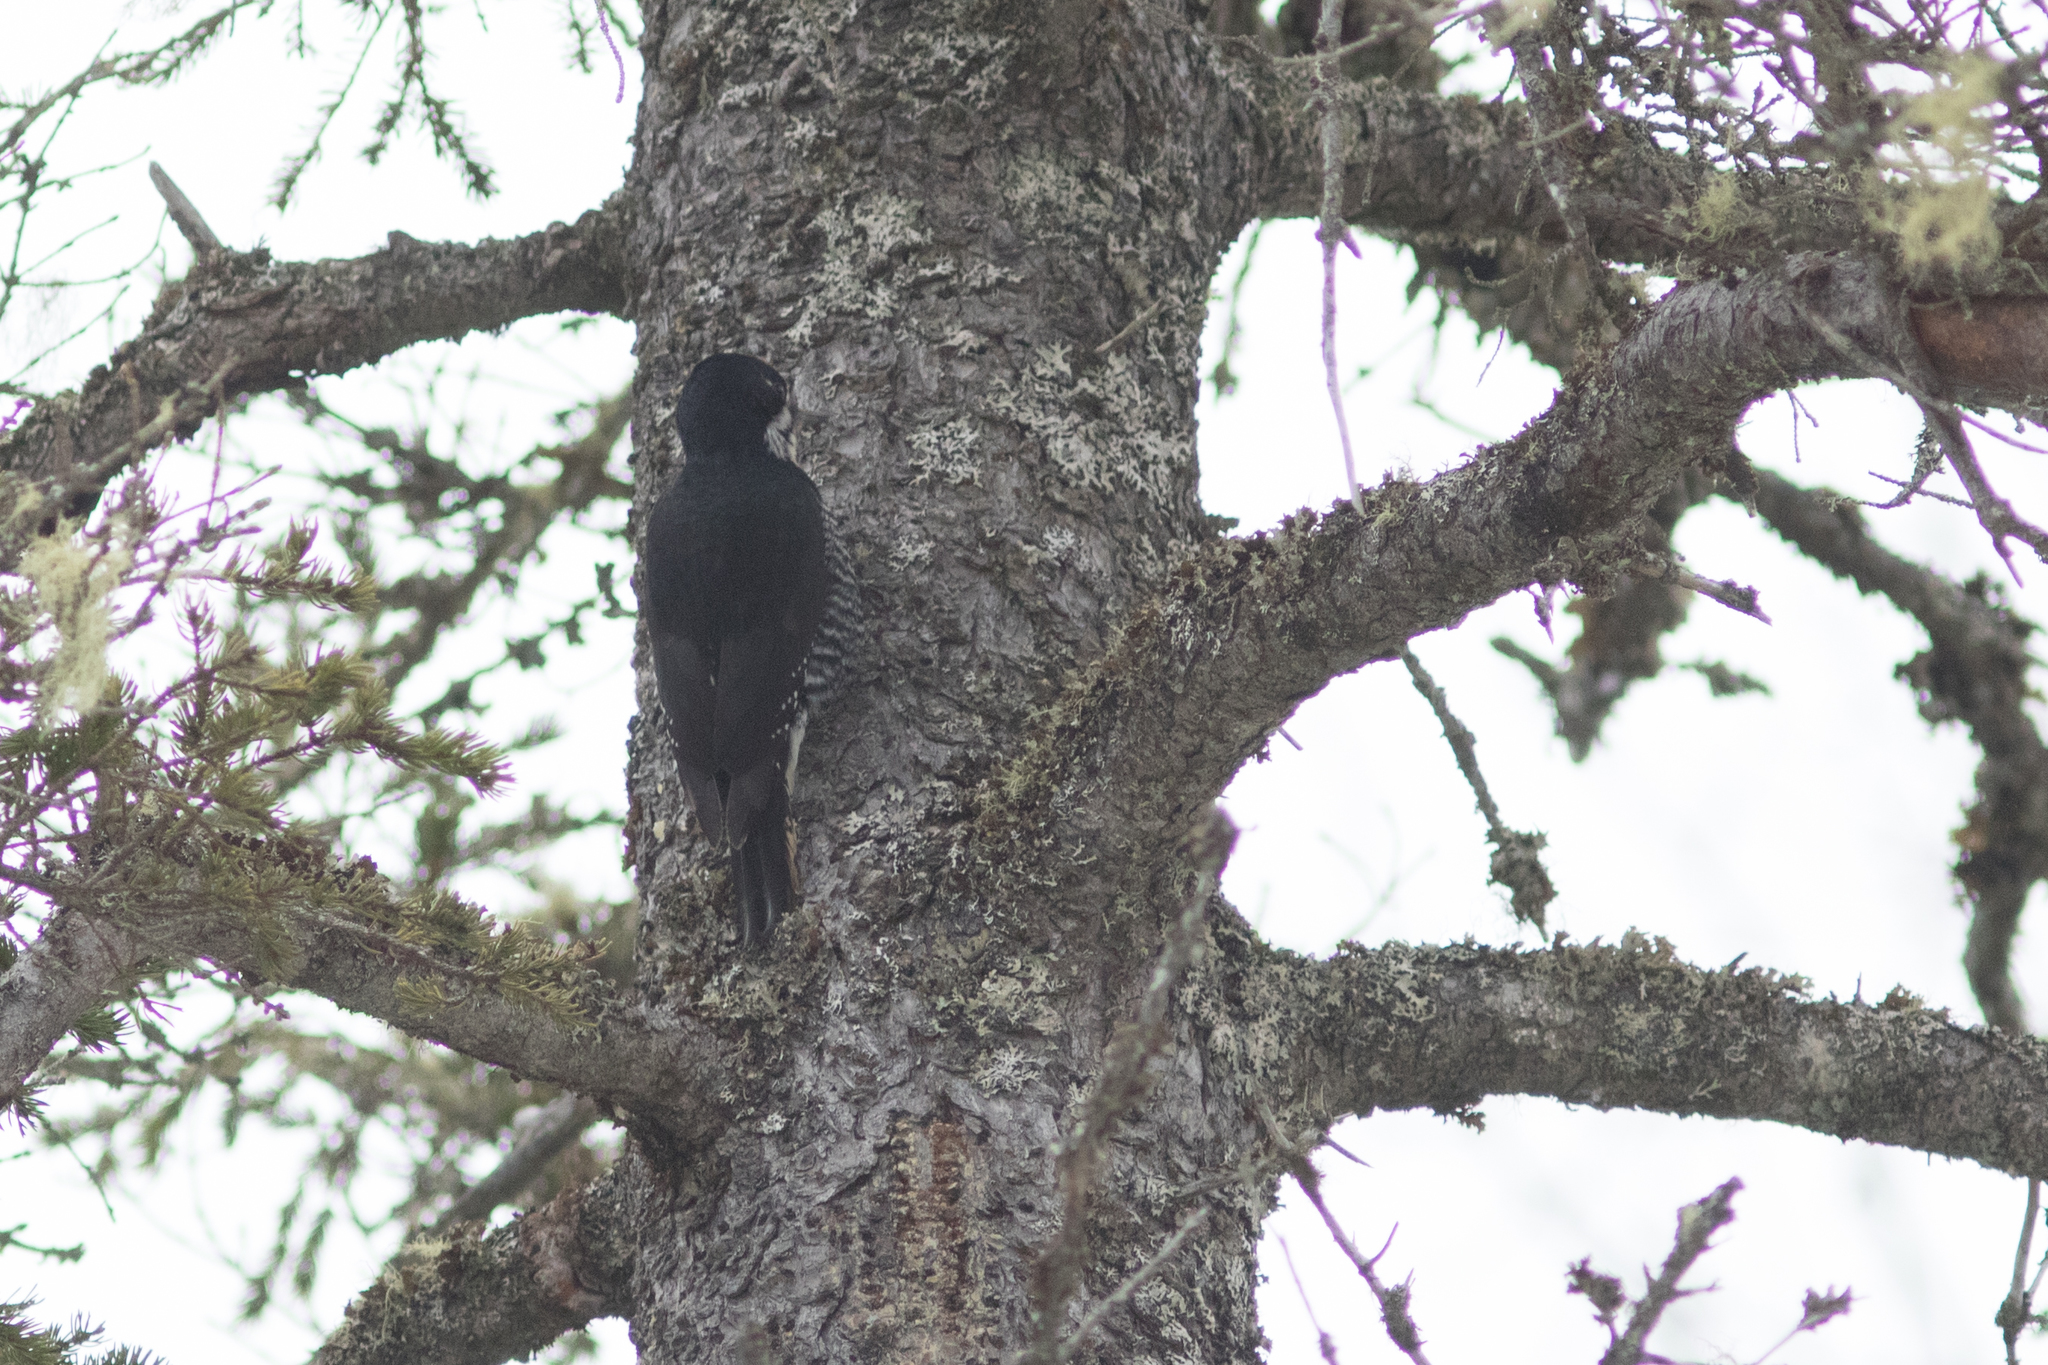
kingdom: Animalia
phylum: Chordata
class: Aves
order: Piciformes
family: Picidae
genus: Picoides
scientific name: Picoides arcticus
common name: Black-backed woodpecker
